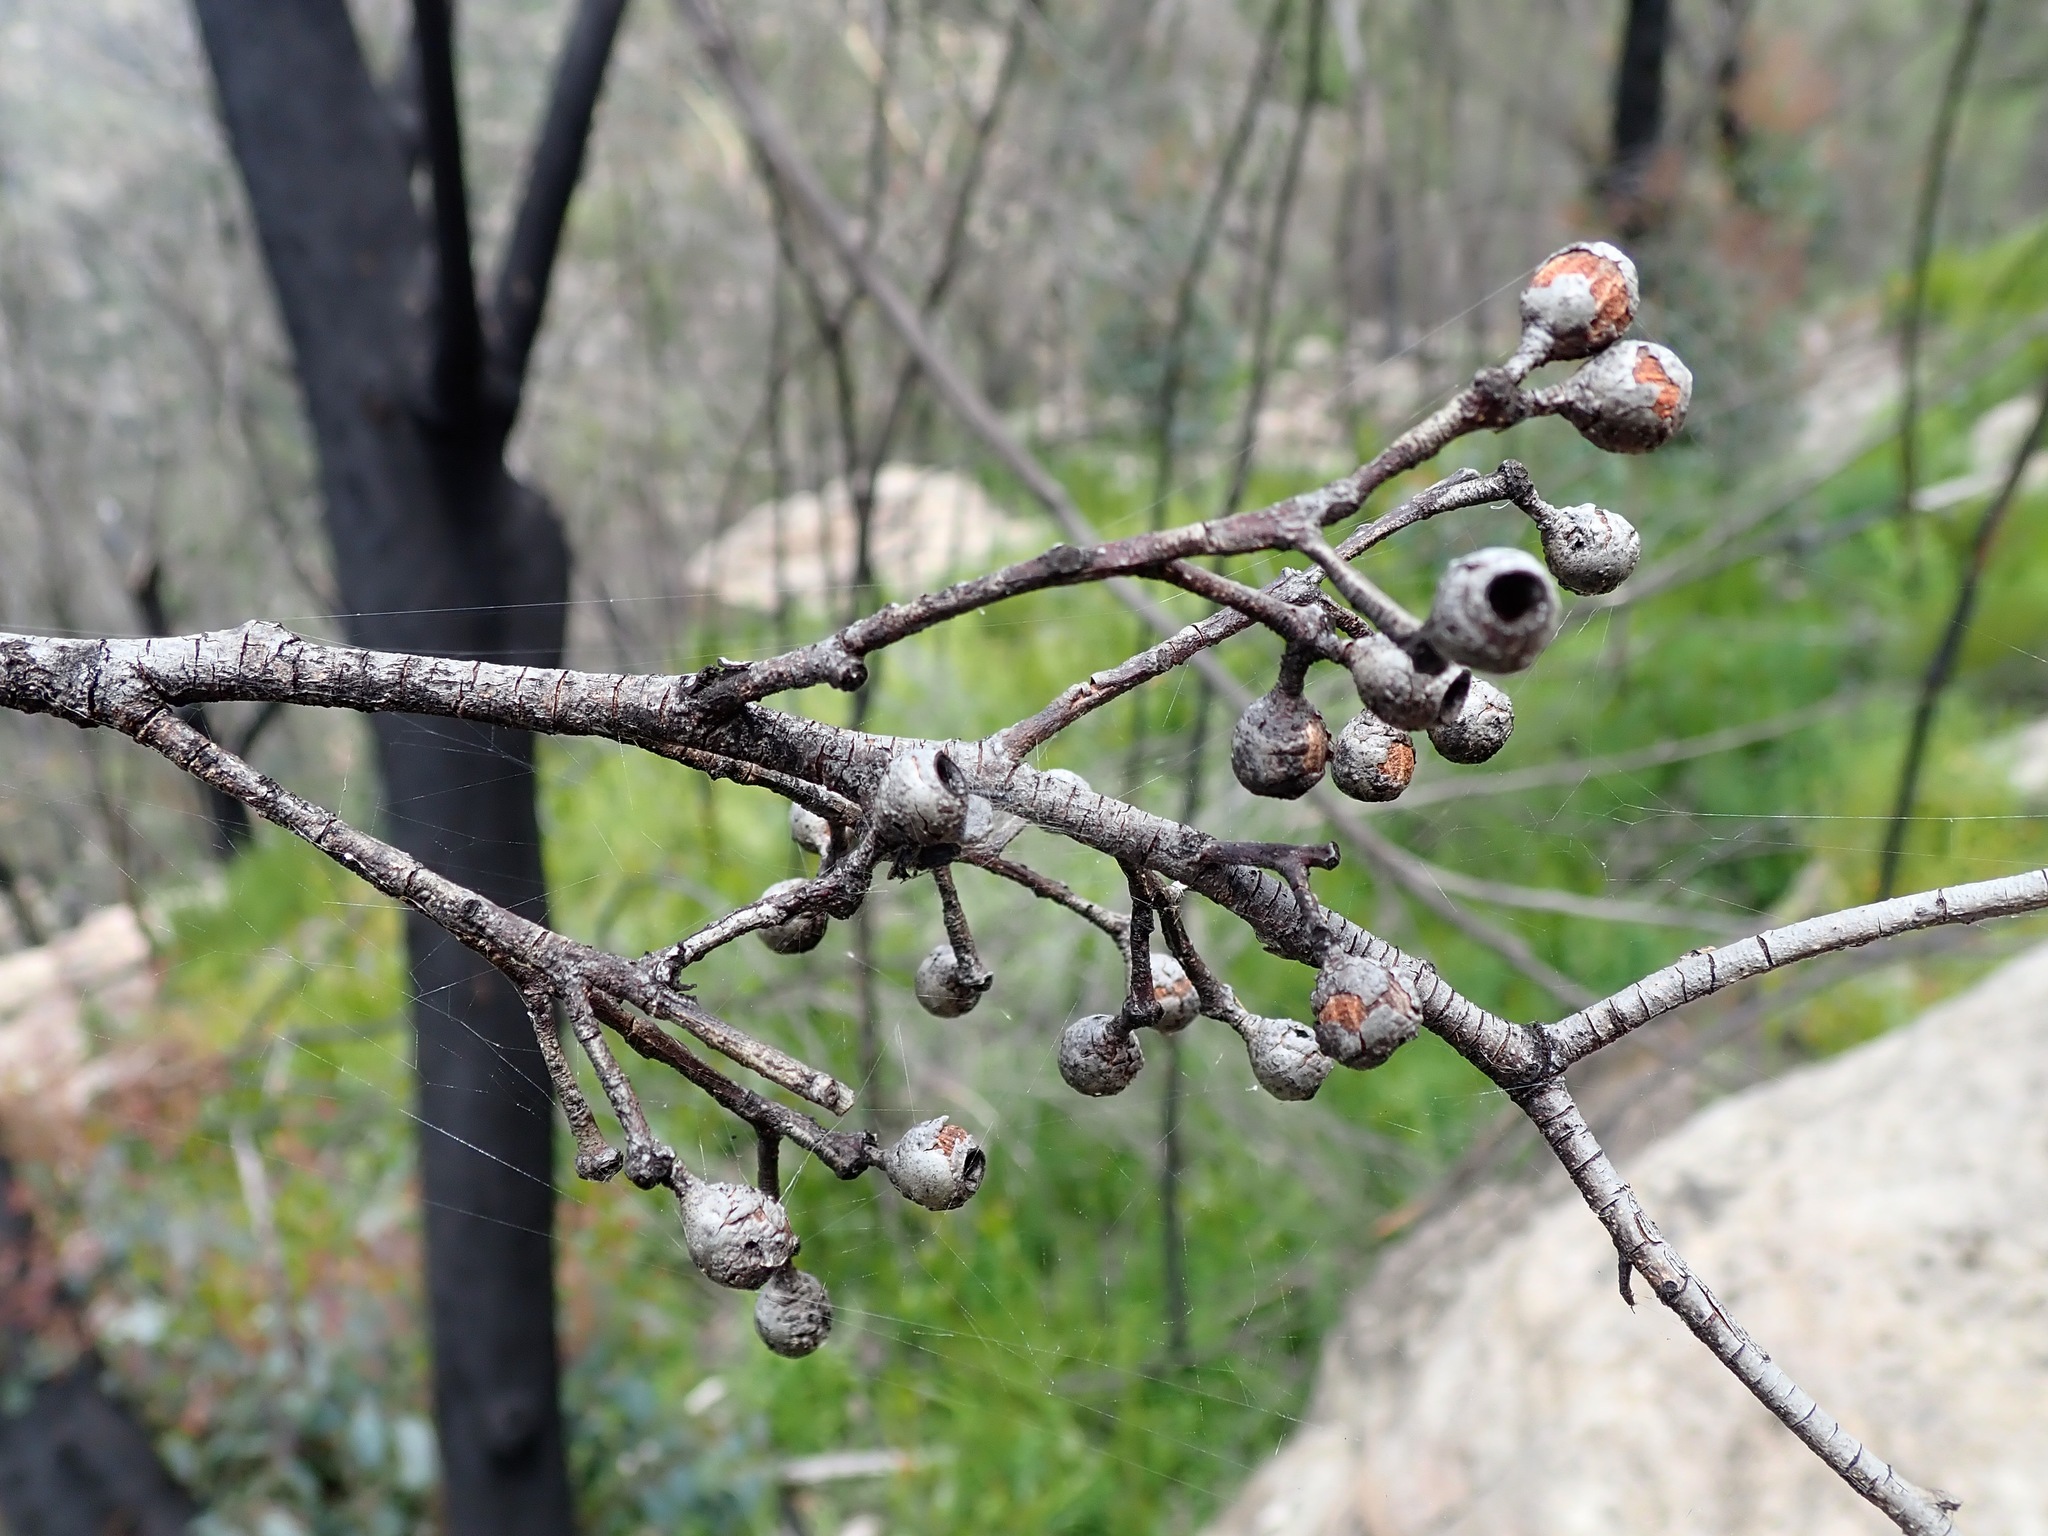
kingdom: Plantae
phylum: Tracheophyta
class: Magnoliopsida
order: Myrtales
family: Myrtaceae
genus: Eucalyptus
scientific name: Eucalyptus piperita
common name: Sydney peppermint
